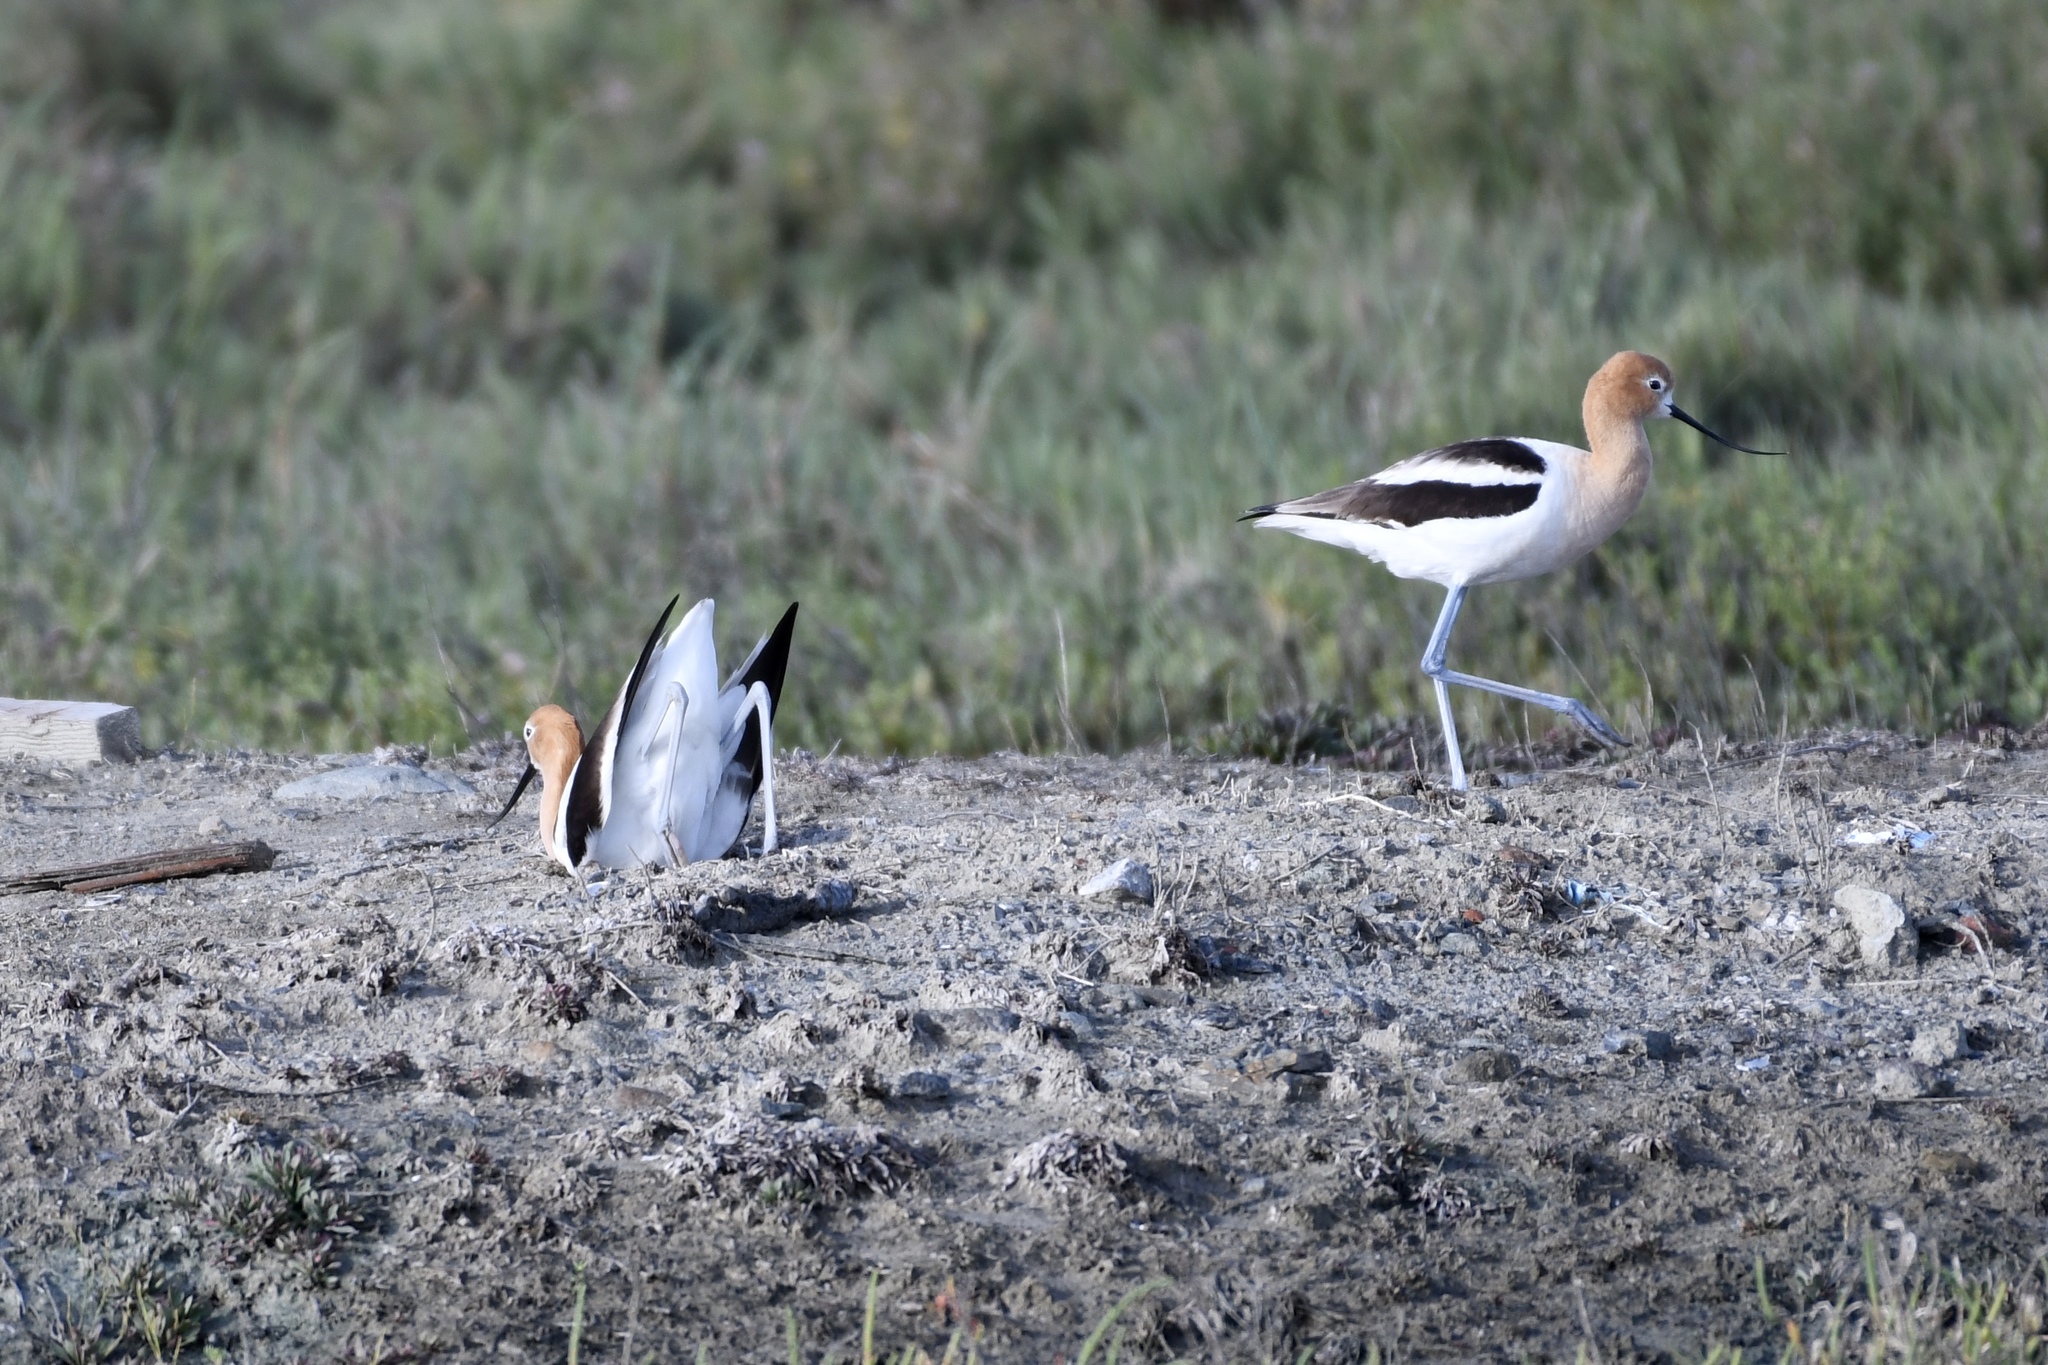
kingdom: Animalia
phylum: Chordata
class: Aves
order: Charadriiformes
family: Recurvirostridae
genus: Recurvirostra
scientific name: Recurvirostra americana
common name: American avocet
